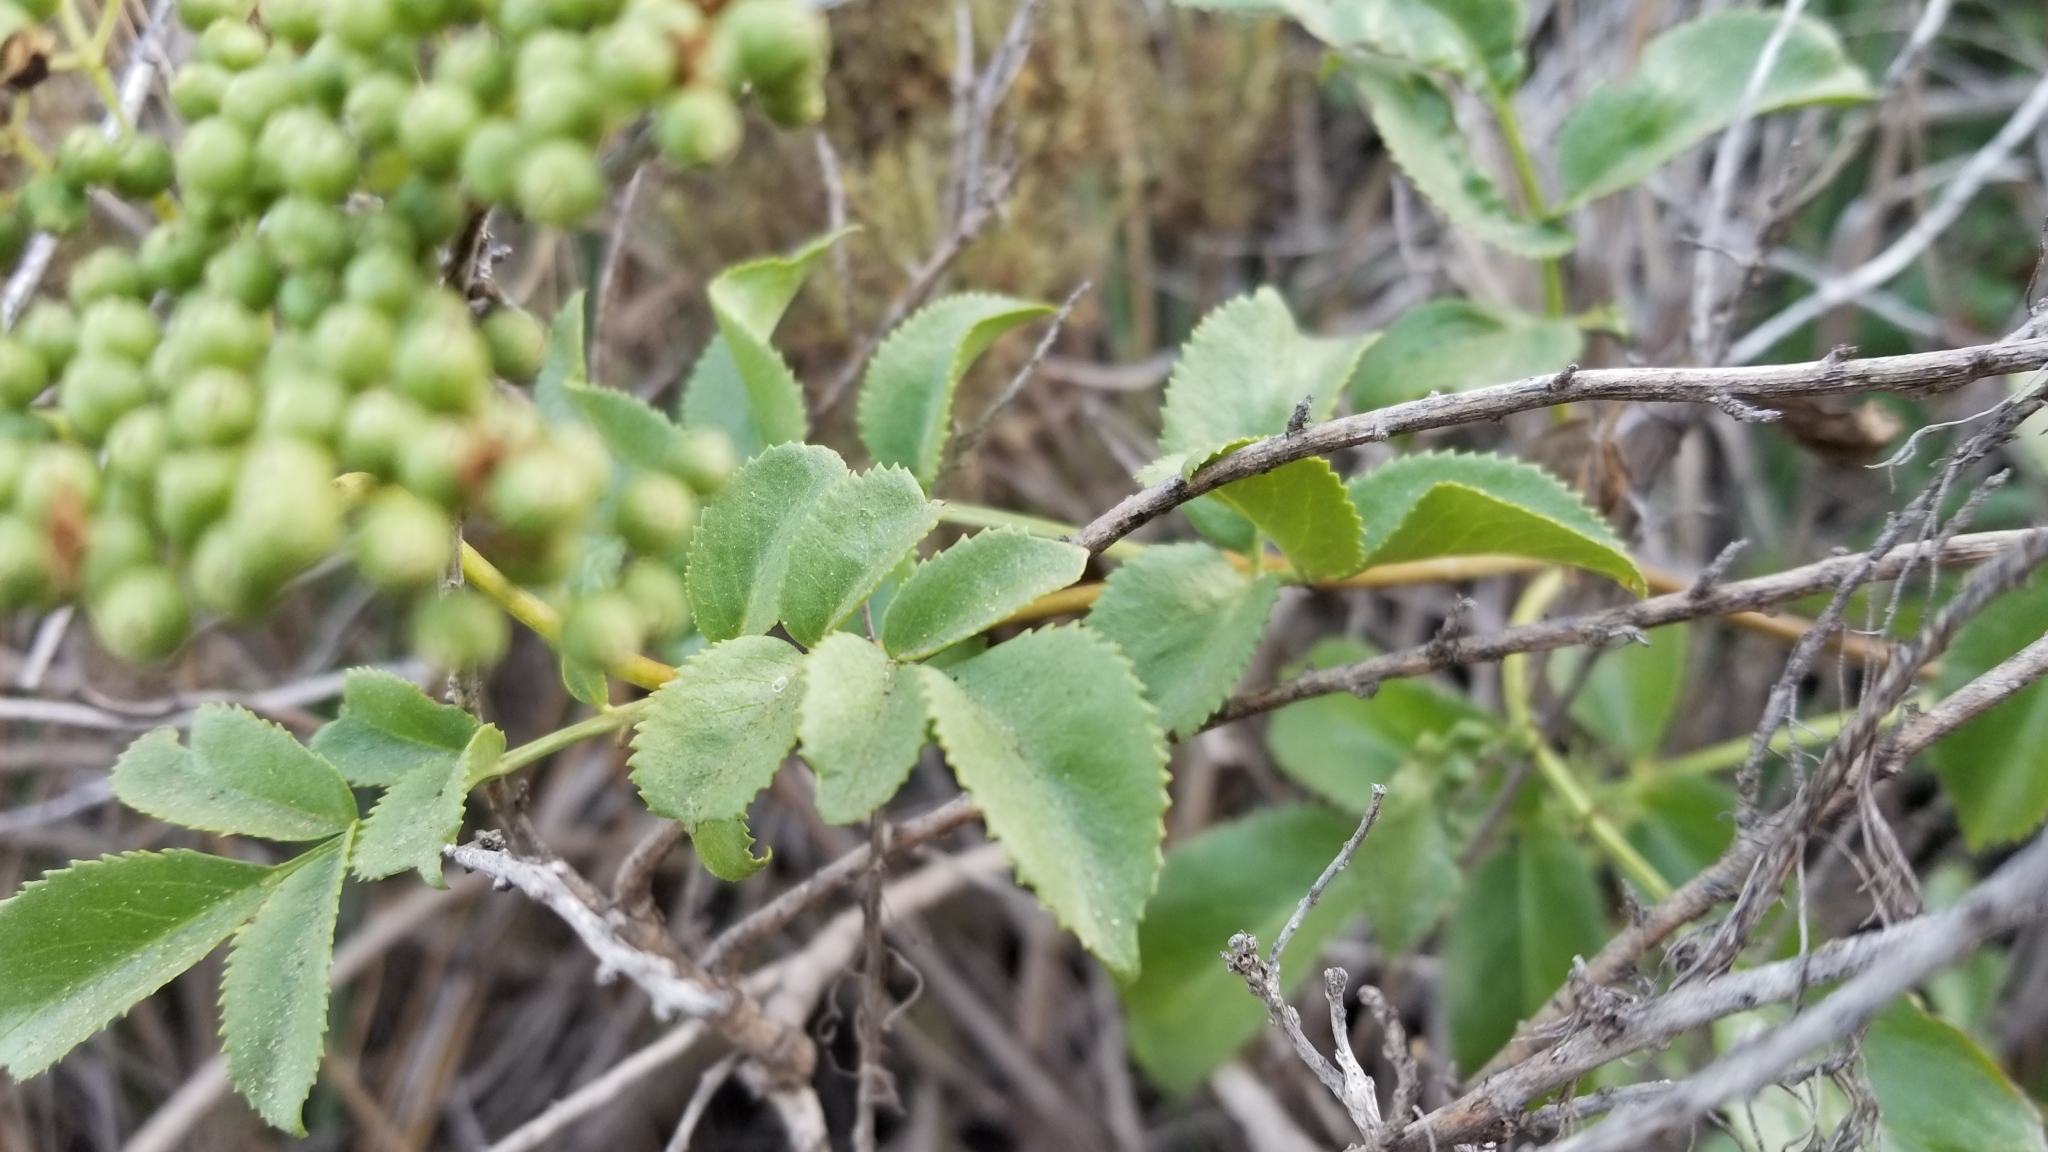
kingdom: Plantae
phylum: Tracheophyta
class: Magnoliopsida
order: Dipsacales
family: Viburnaceae
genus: Sambucus
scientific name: Sambucus cerulea
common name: Blue elder
